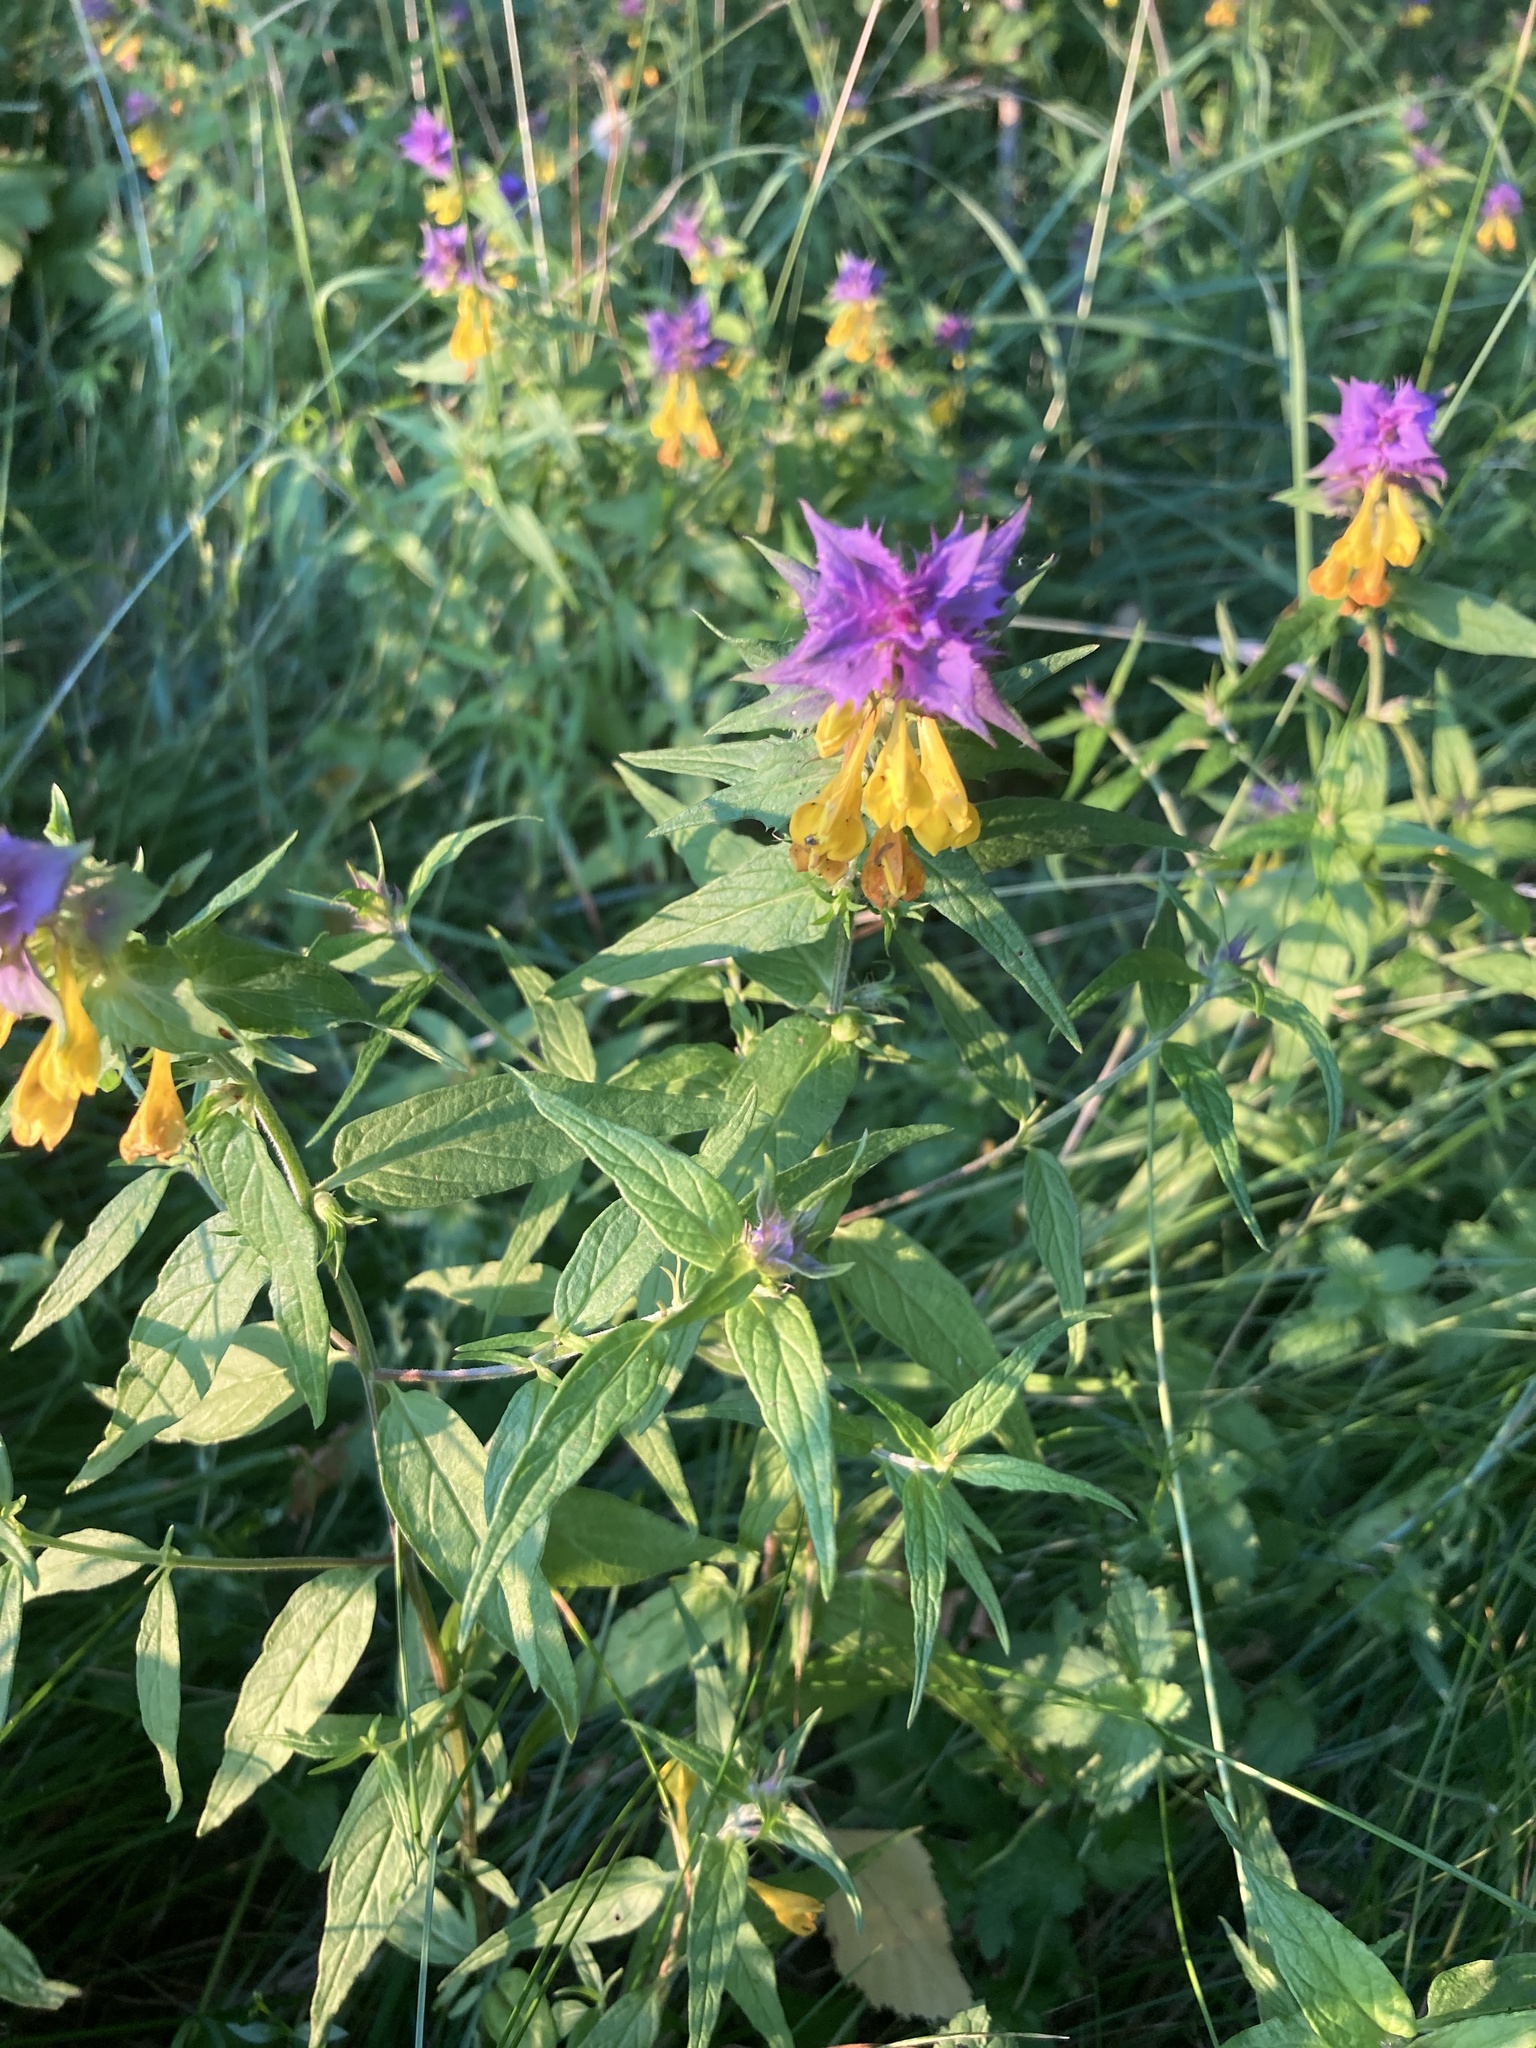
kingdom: Plantae
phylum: Tracheophyta
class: Magnoliopsida
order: Lamiales
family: Orobanchaceae
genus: Melampyrum
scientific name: Melampyrum nemorosum
